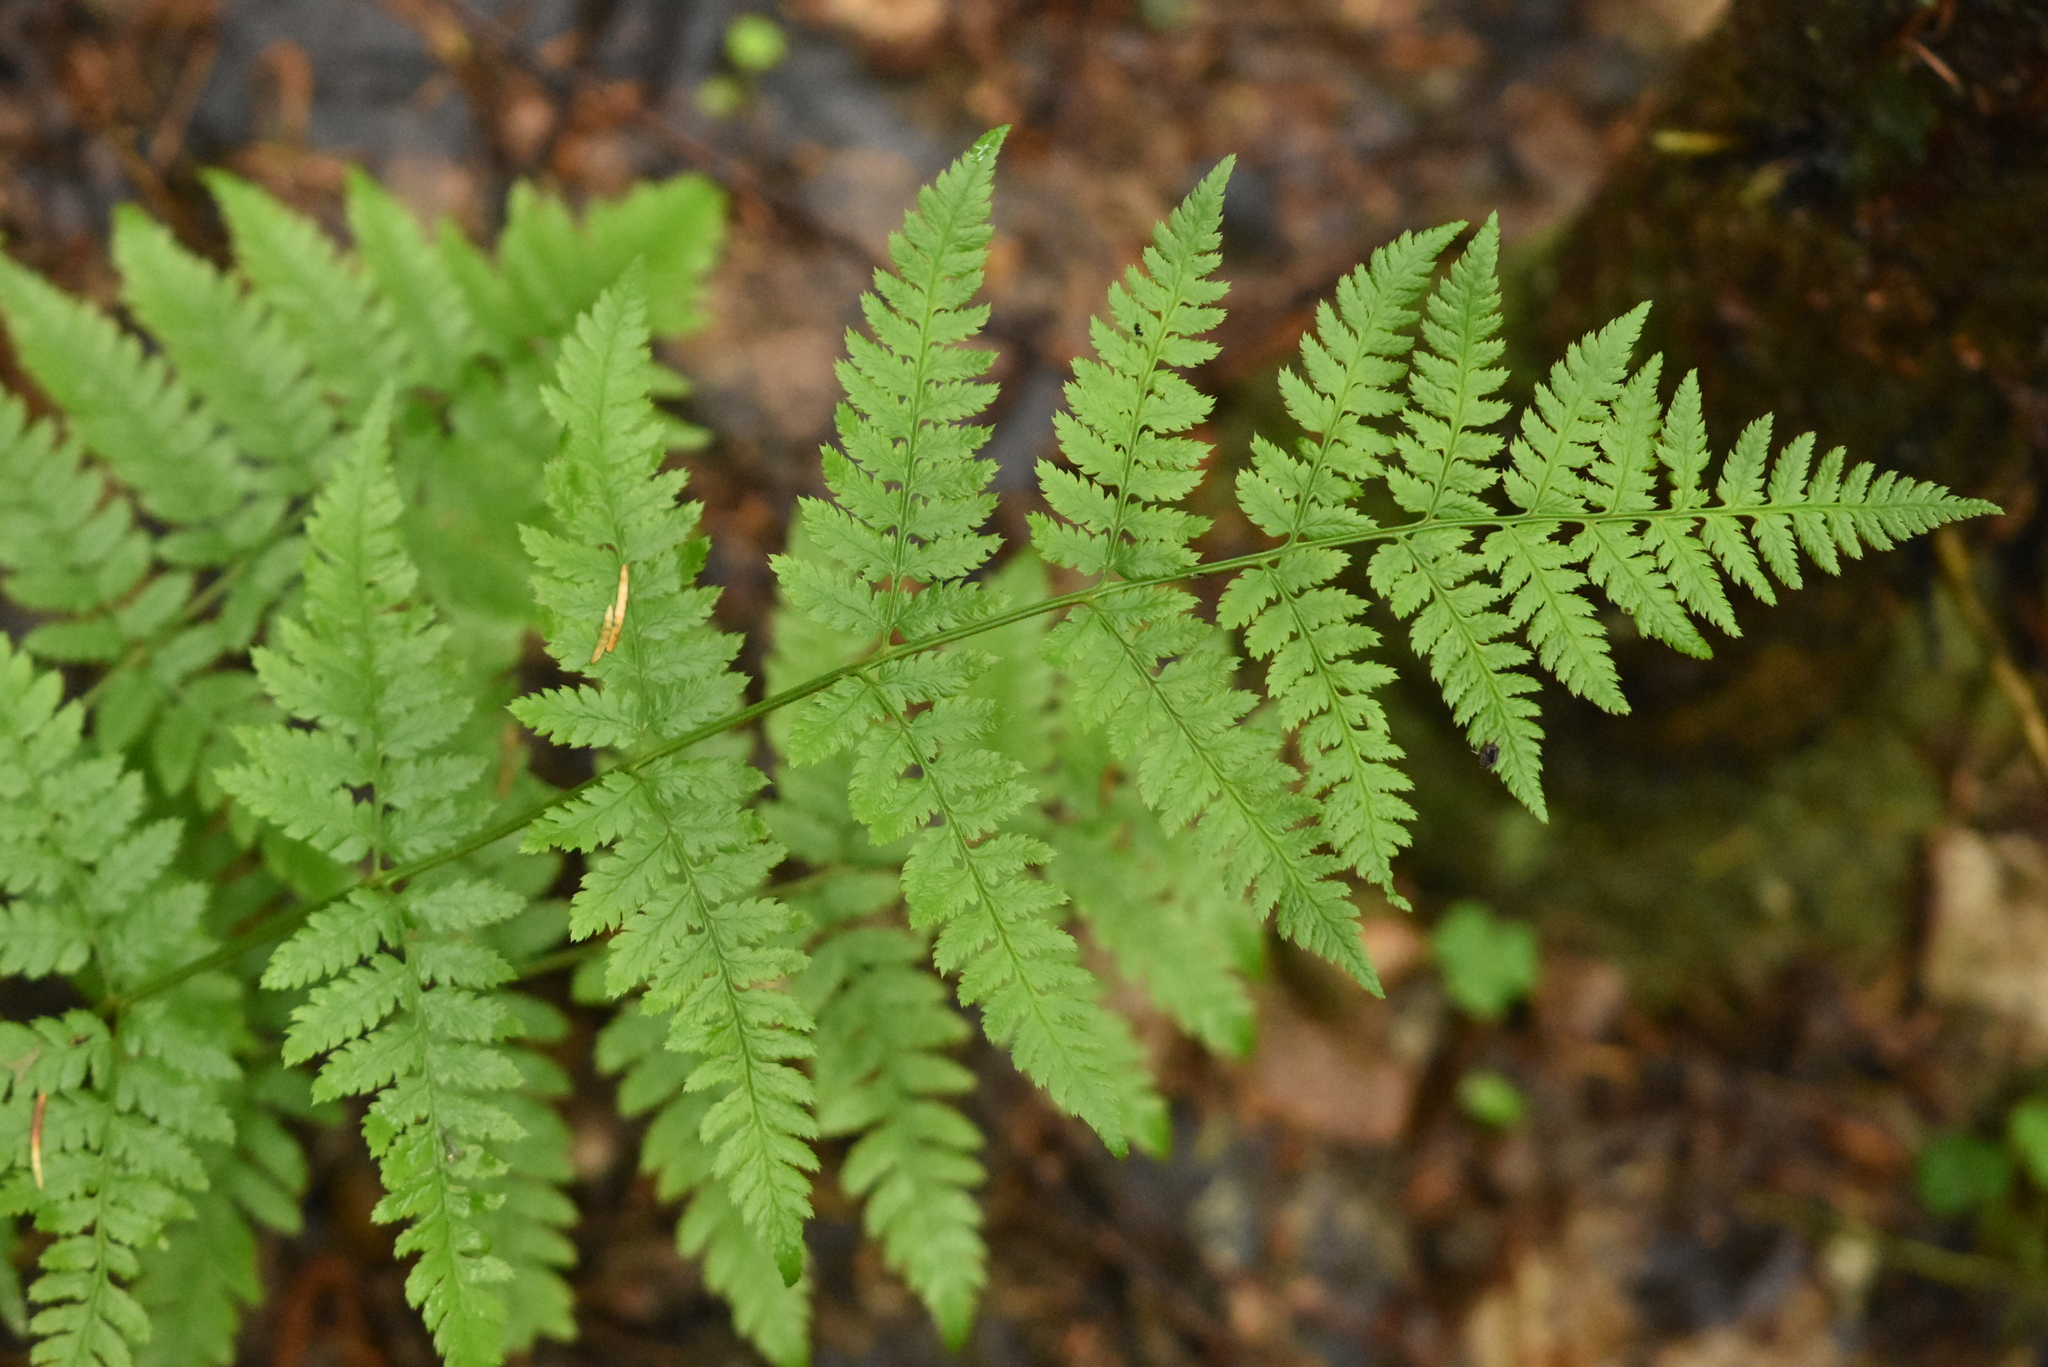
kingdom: Plantae
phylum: Tracheophyta
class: Polypodiopsida
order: Polypodiales
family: Dryopteridaceae
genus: Dryopteris
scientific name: Dryopteris carthusiana
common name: Narrow buckler-fern
